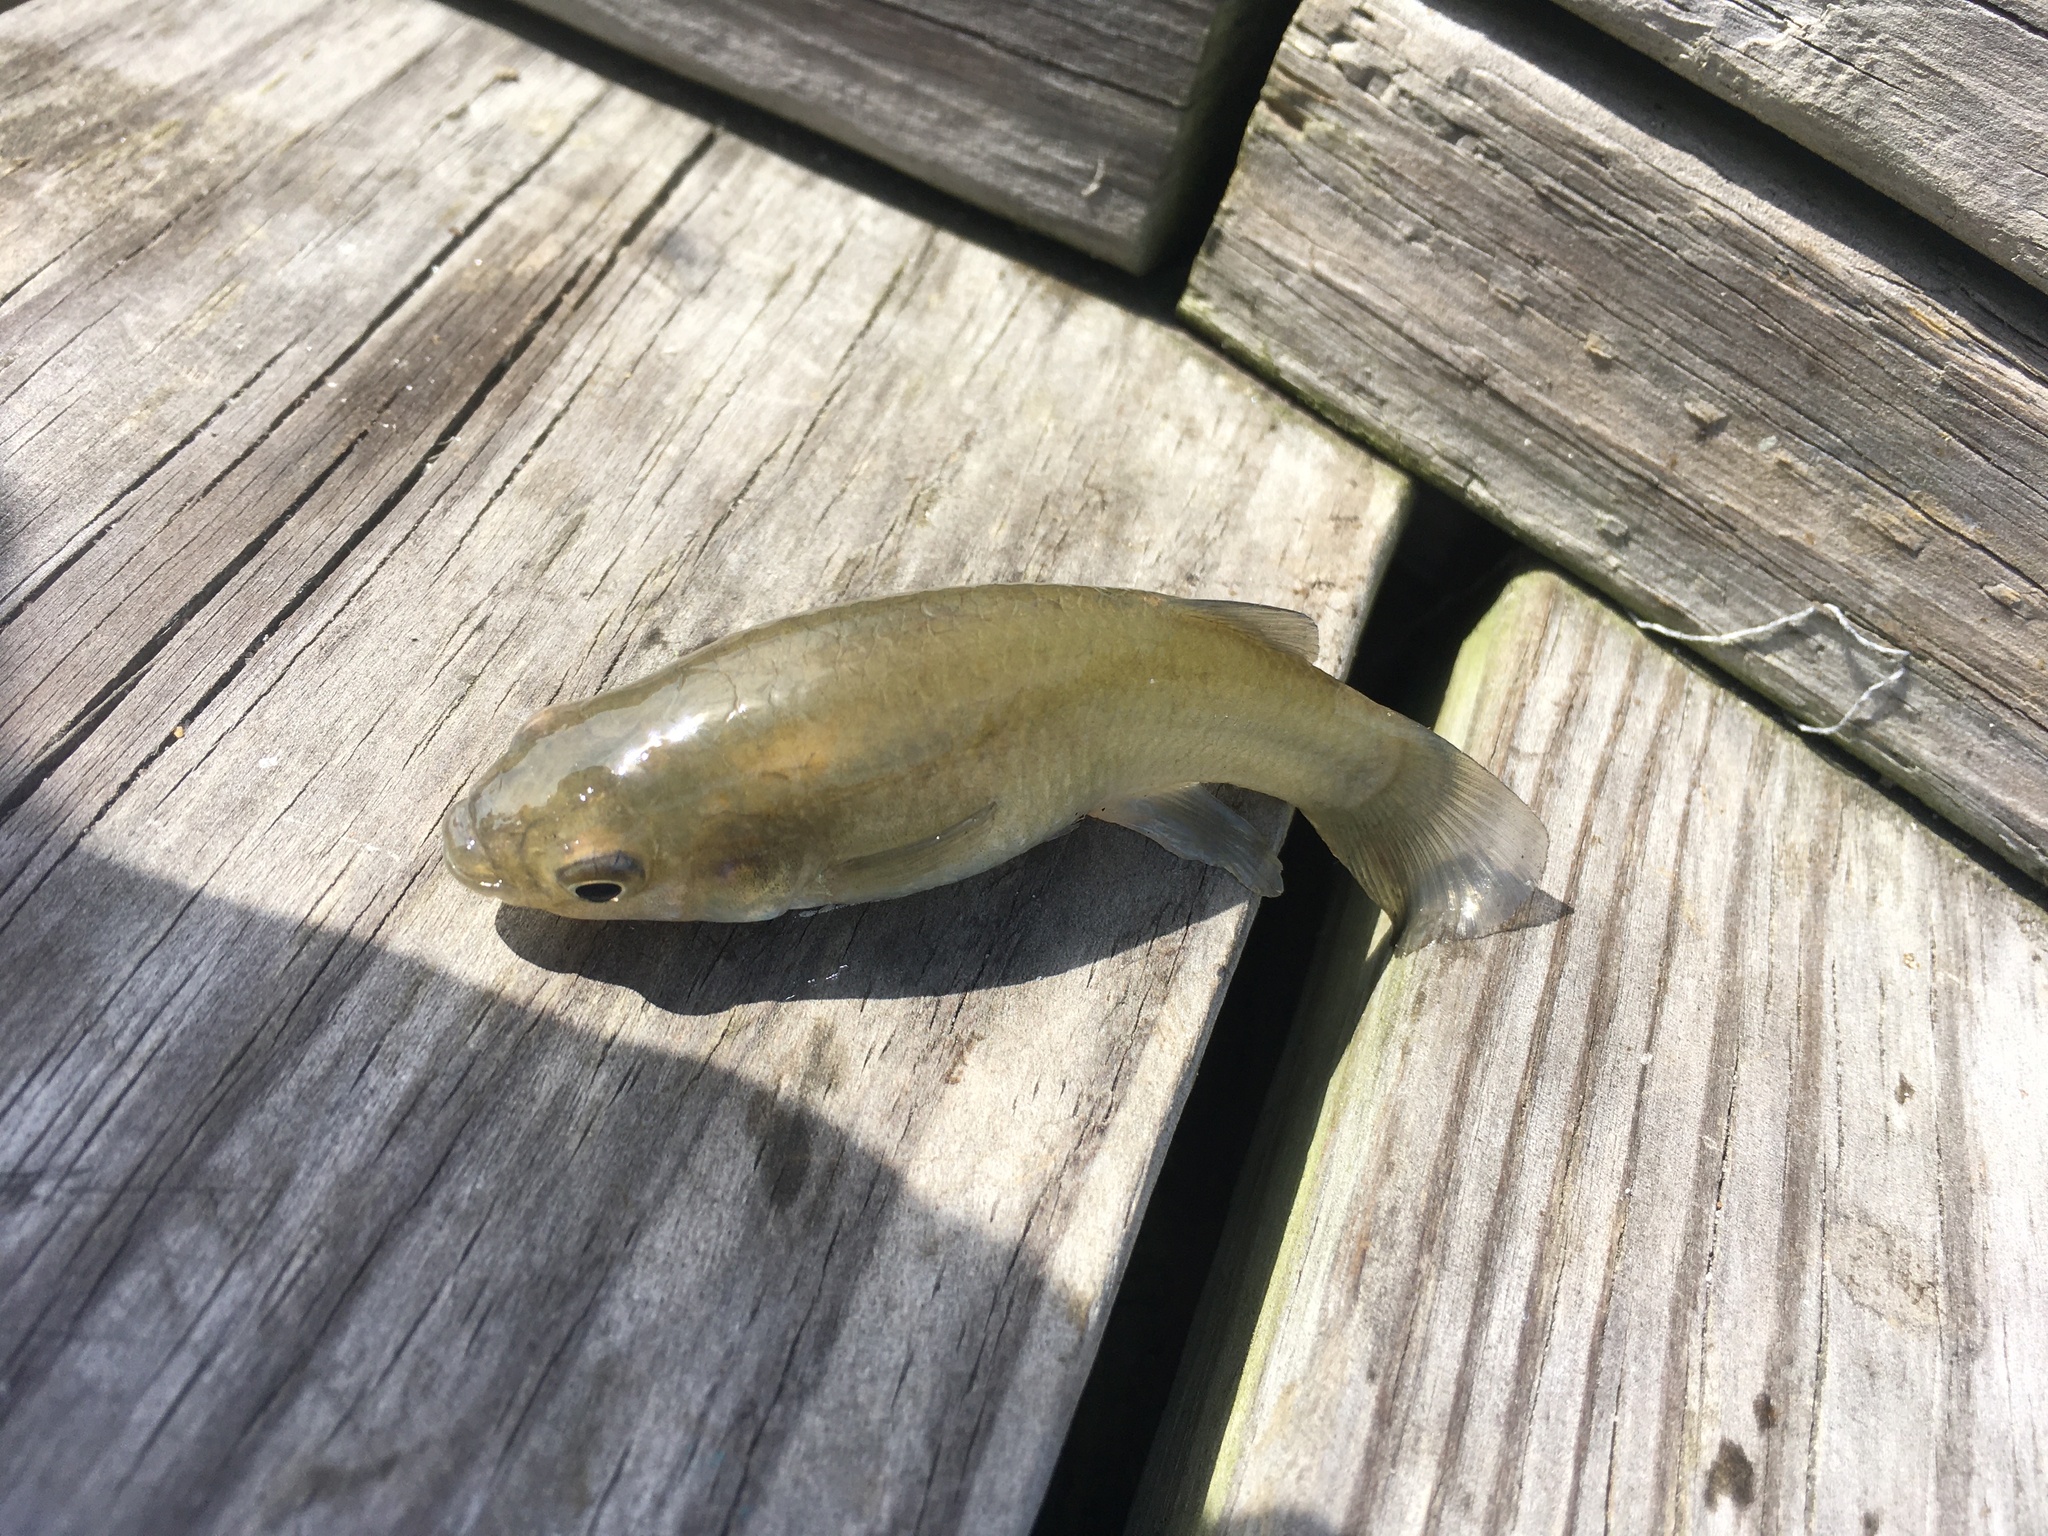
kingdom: Animalia
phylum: Chordata
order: Cyprinodontiformes
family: Fundulidae
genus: Fundulus
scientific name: Fundulus heteroclitus
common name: Mummichog
